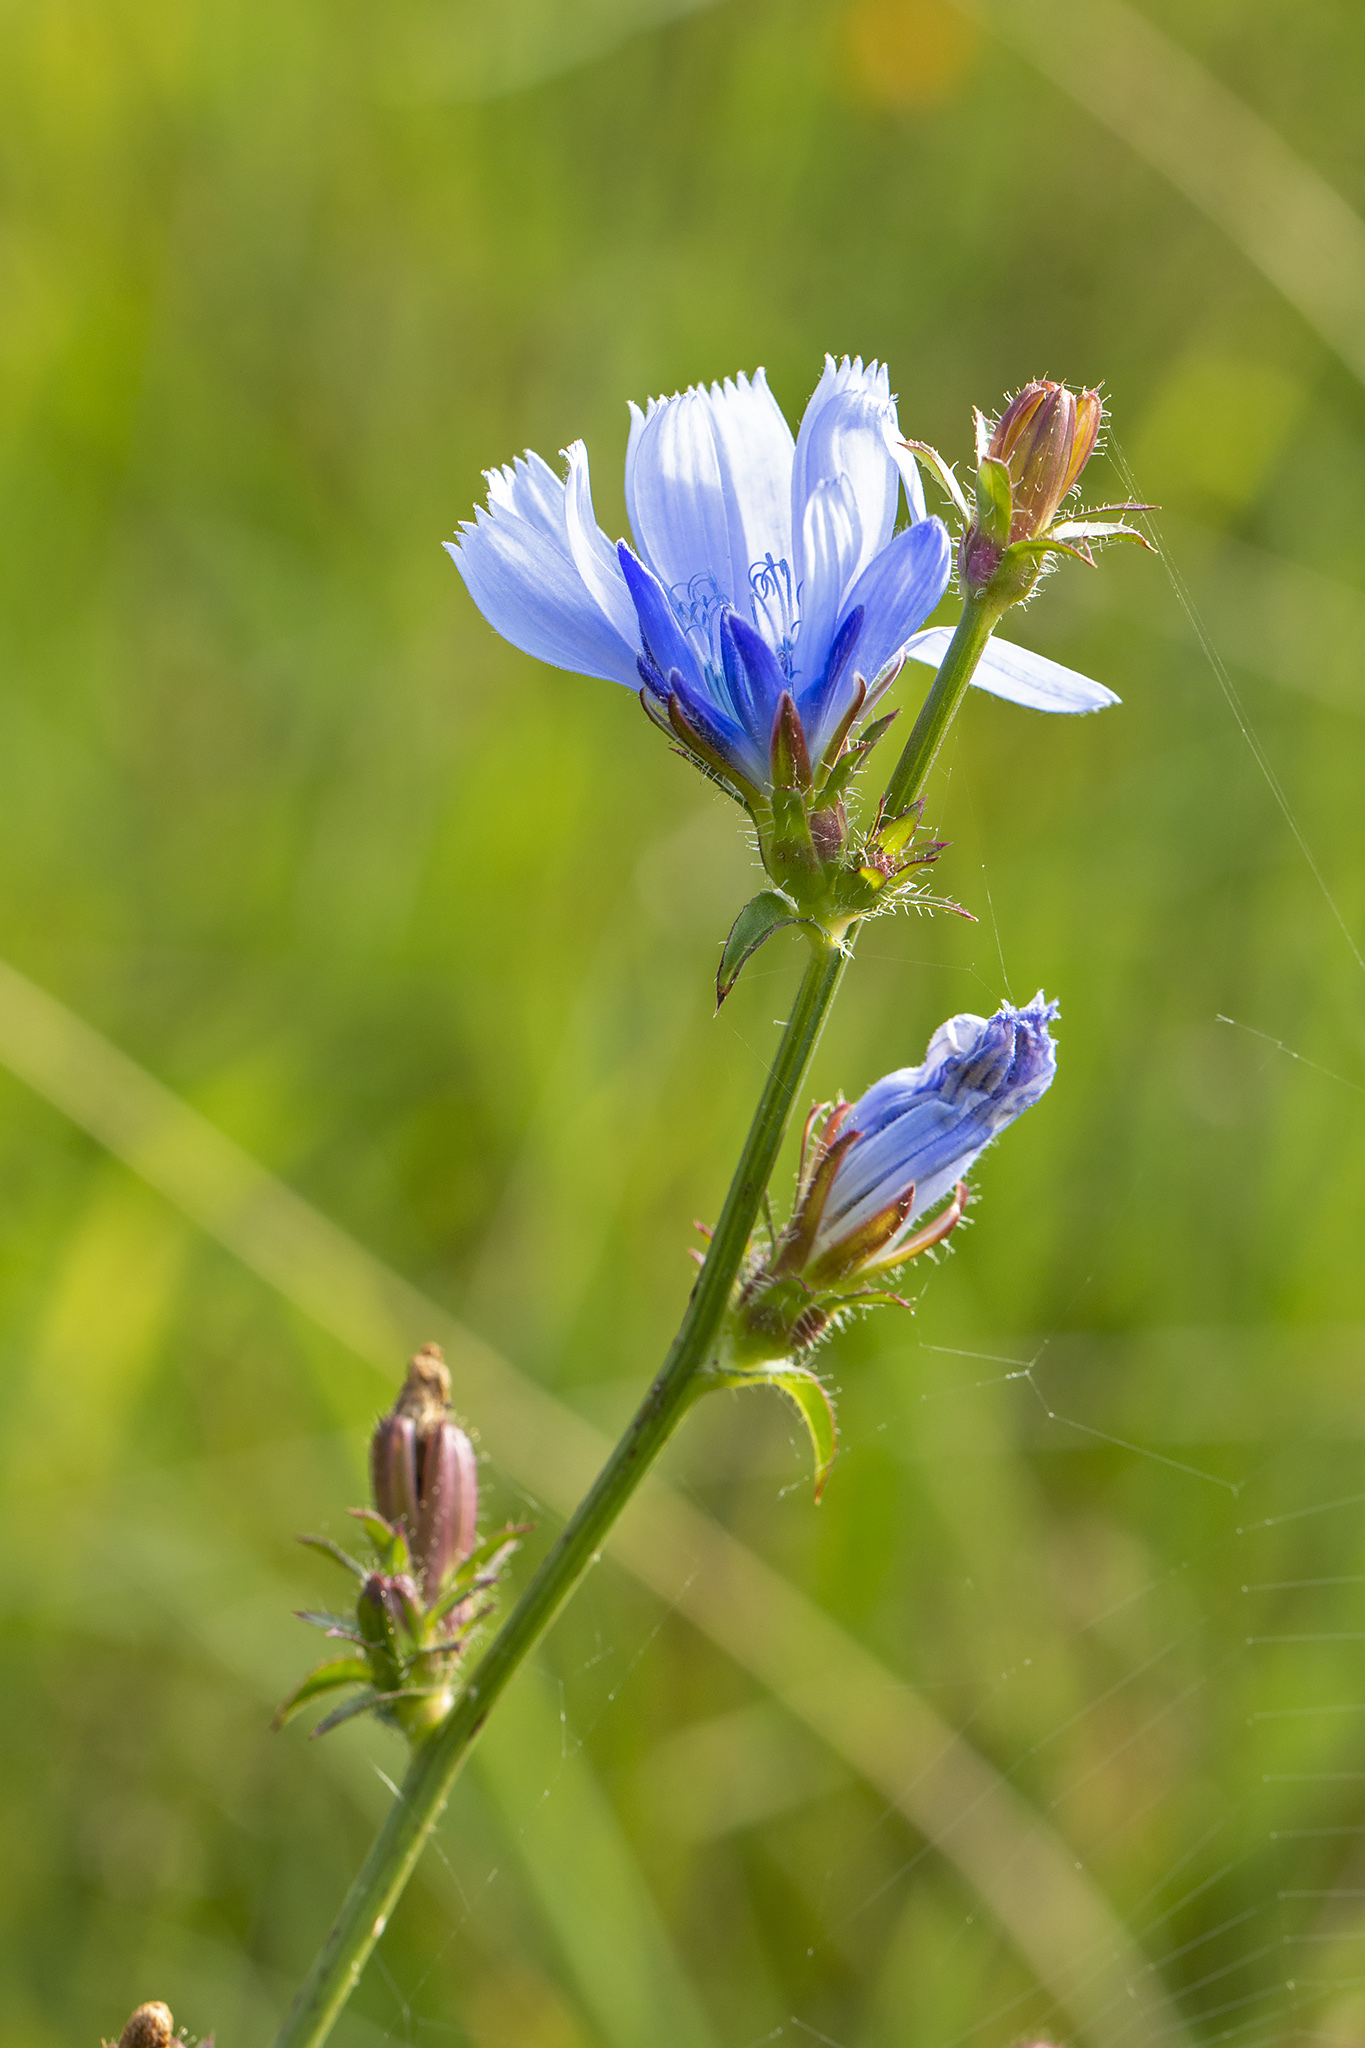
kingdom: Plantae
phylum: Tracheophyta
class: Magnoliopsida
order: Asterales
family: Asteraceae
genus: Cichorium
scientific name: Cichorium intybus
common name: Chicory
